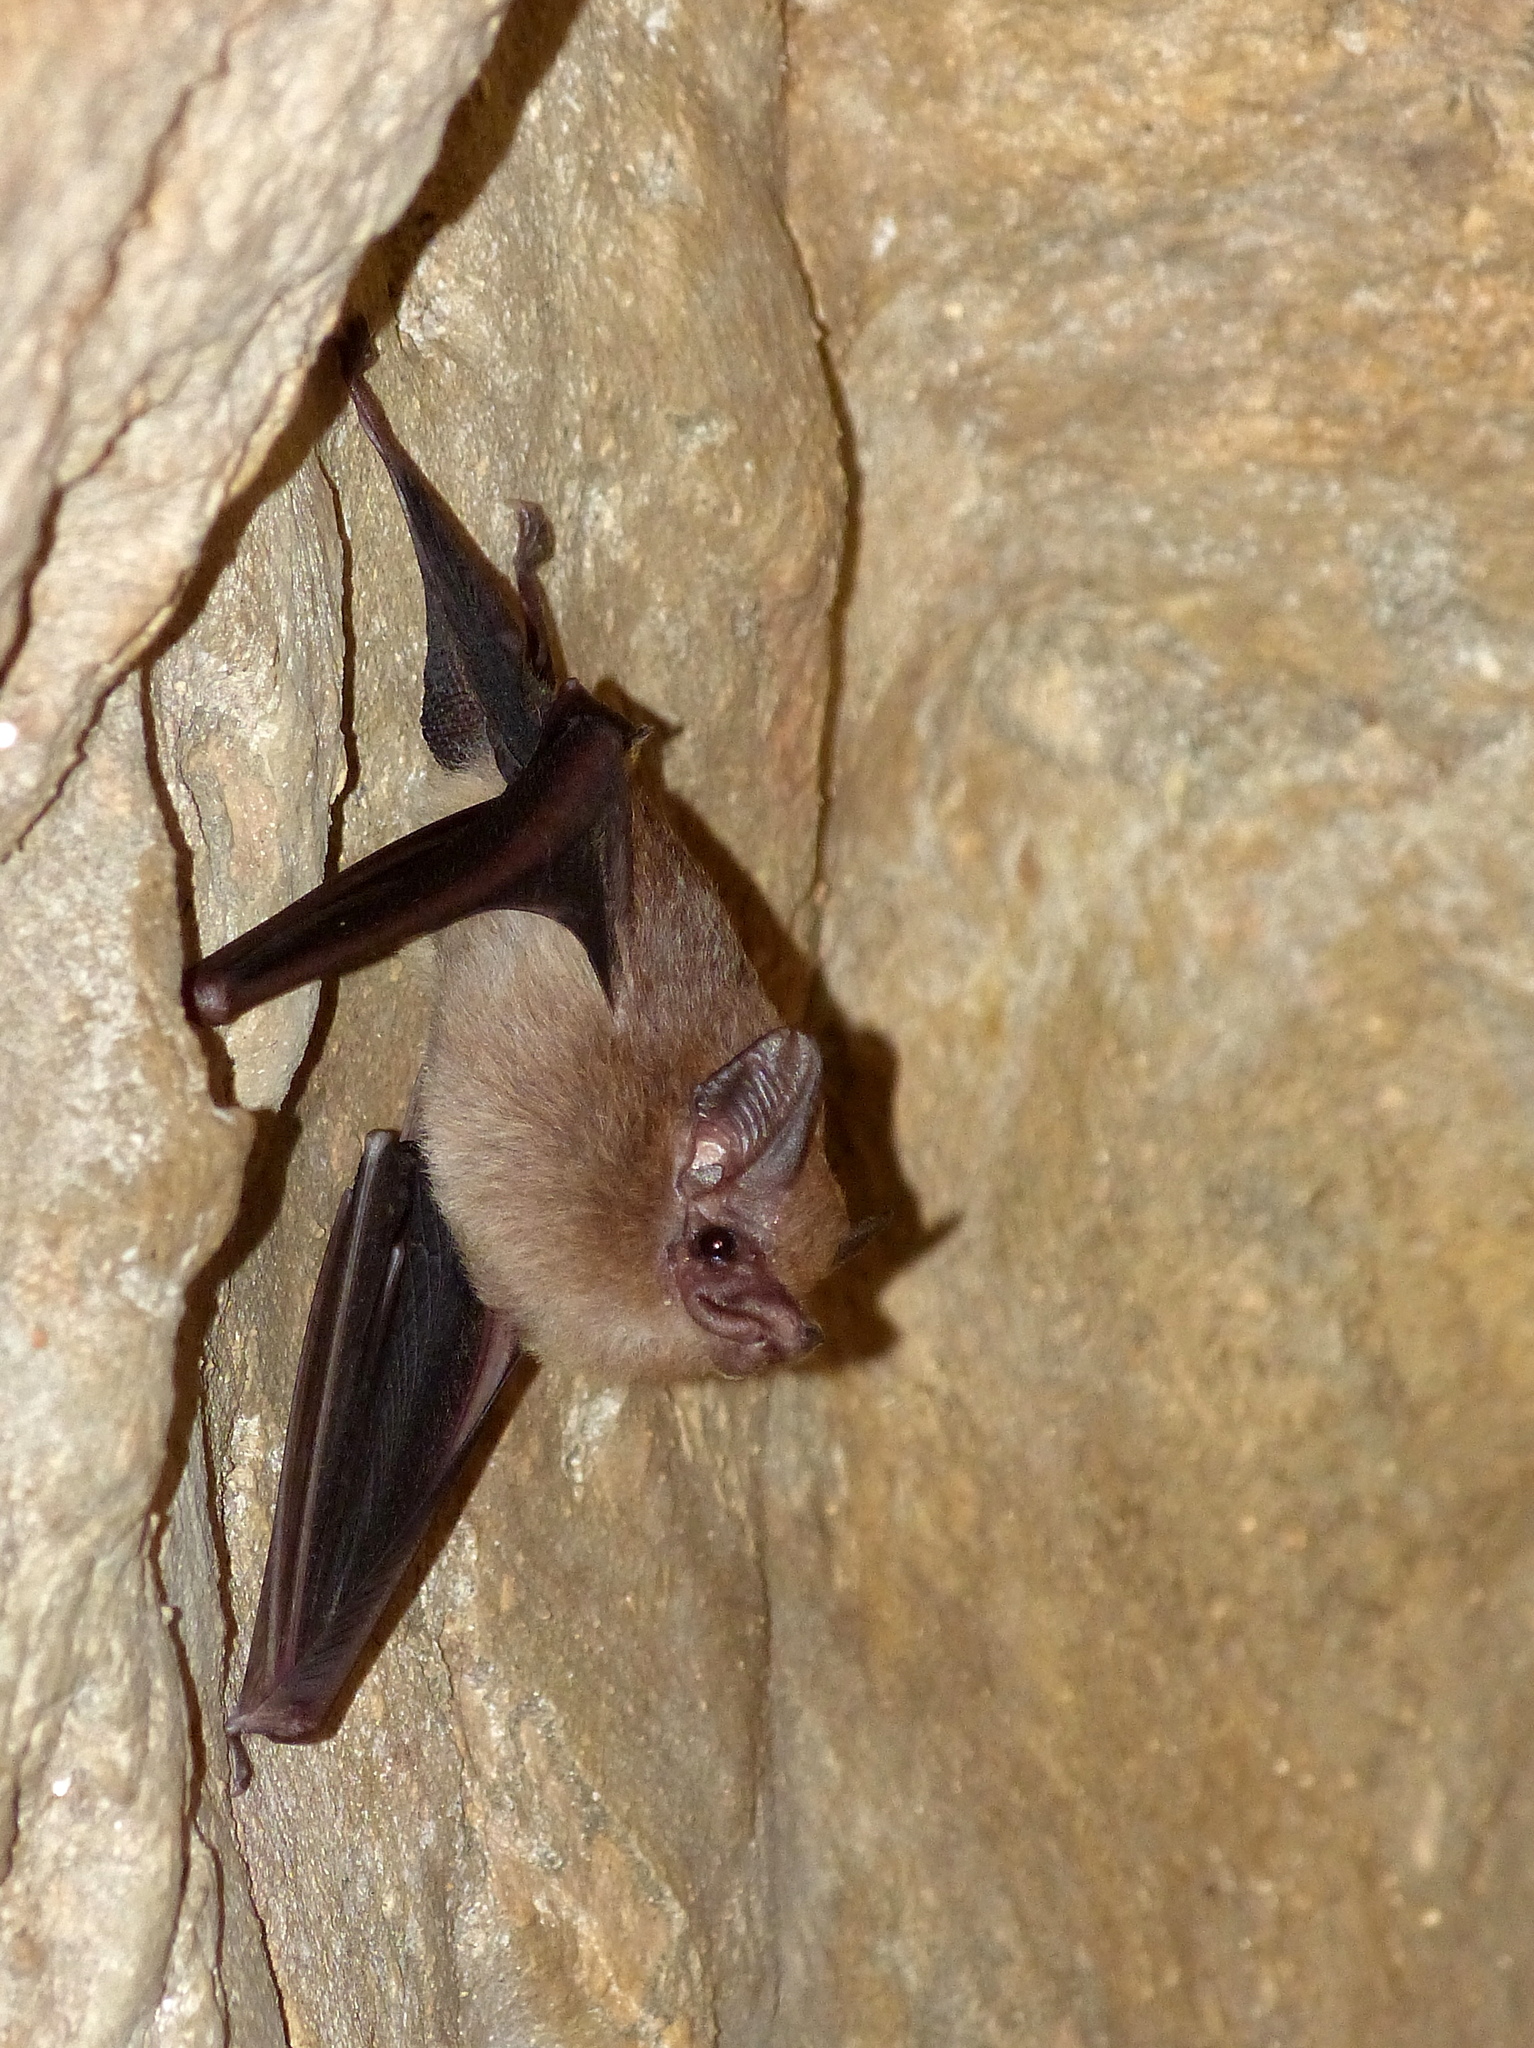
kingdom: Animalia
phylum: Chordata
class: Mammalia
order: Chiroptera
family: Emballonuridae
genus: Peropteryx
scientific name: Peropteryx macrotis
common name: Lesser dog-like bat
